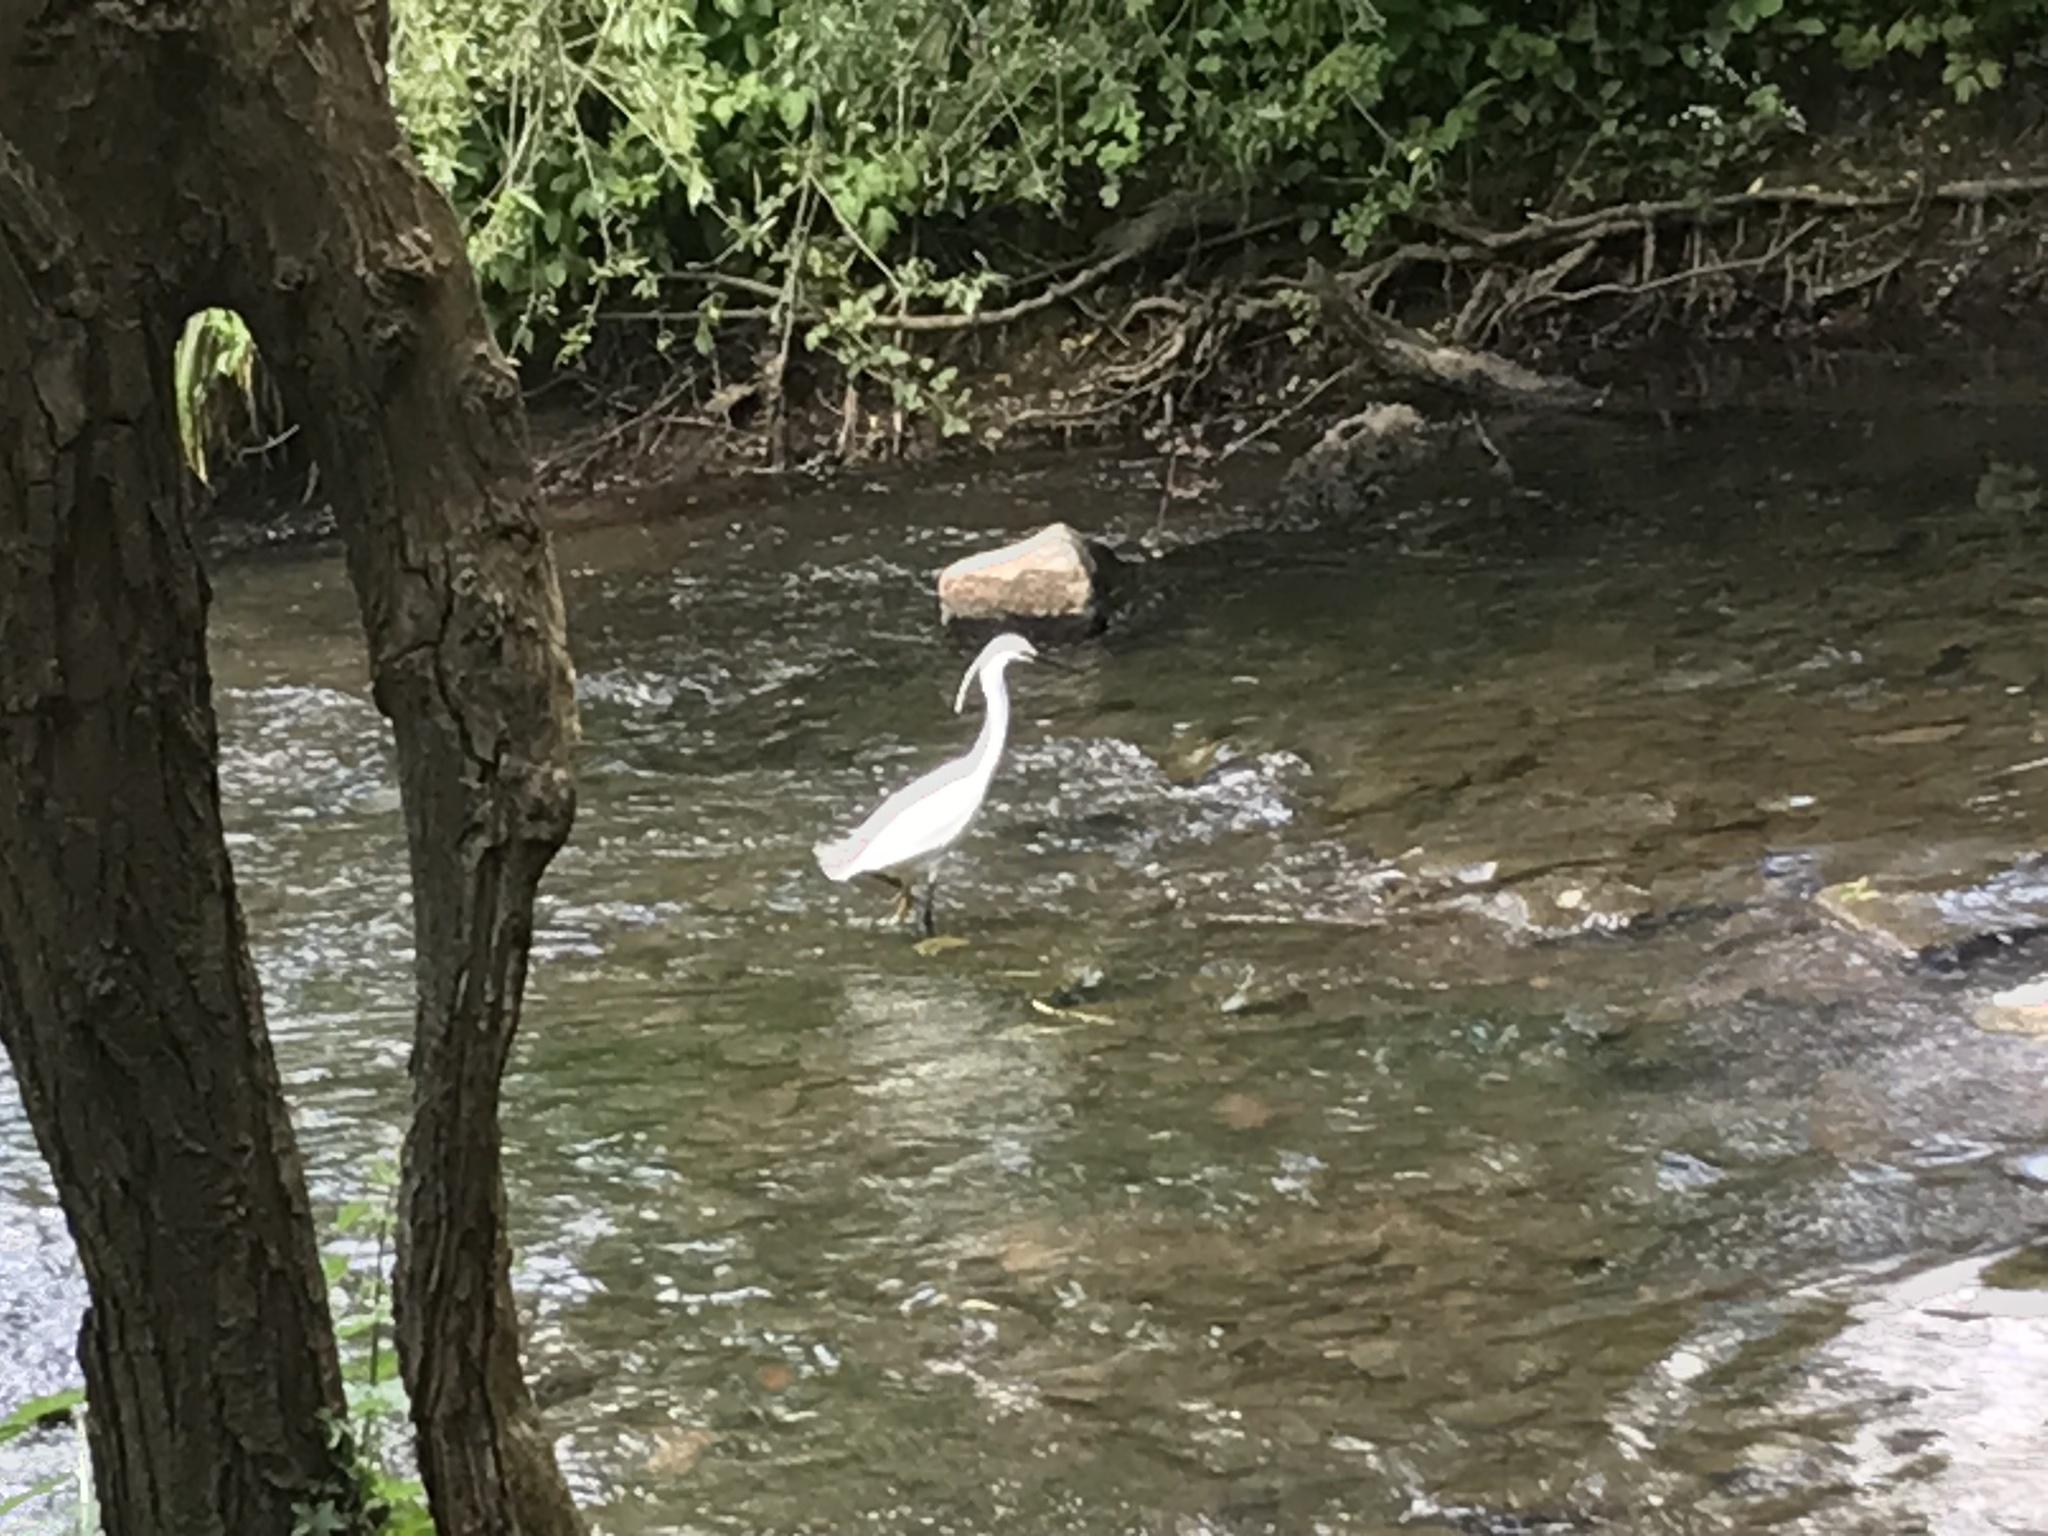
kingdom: Animalia
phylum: Chordata
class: Aves
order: Pelecaniformes
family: Ardeidae
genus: Egretta
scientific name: Egretta garzetta
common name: Little egret
